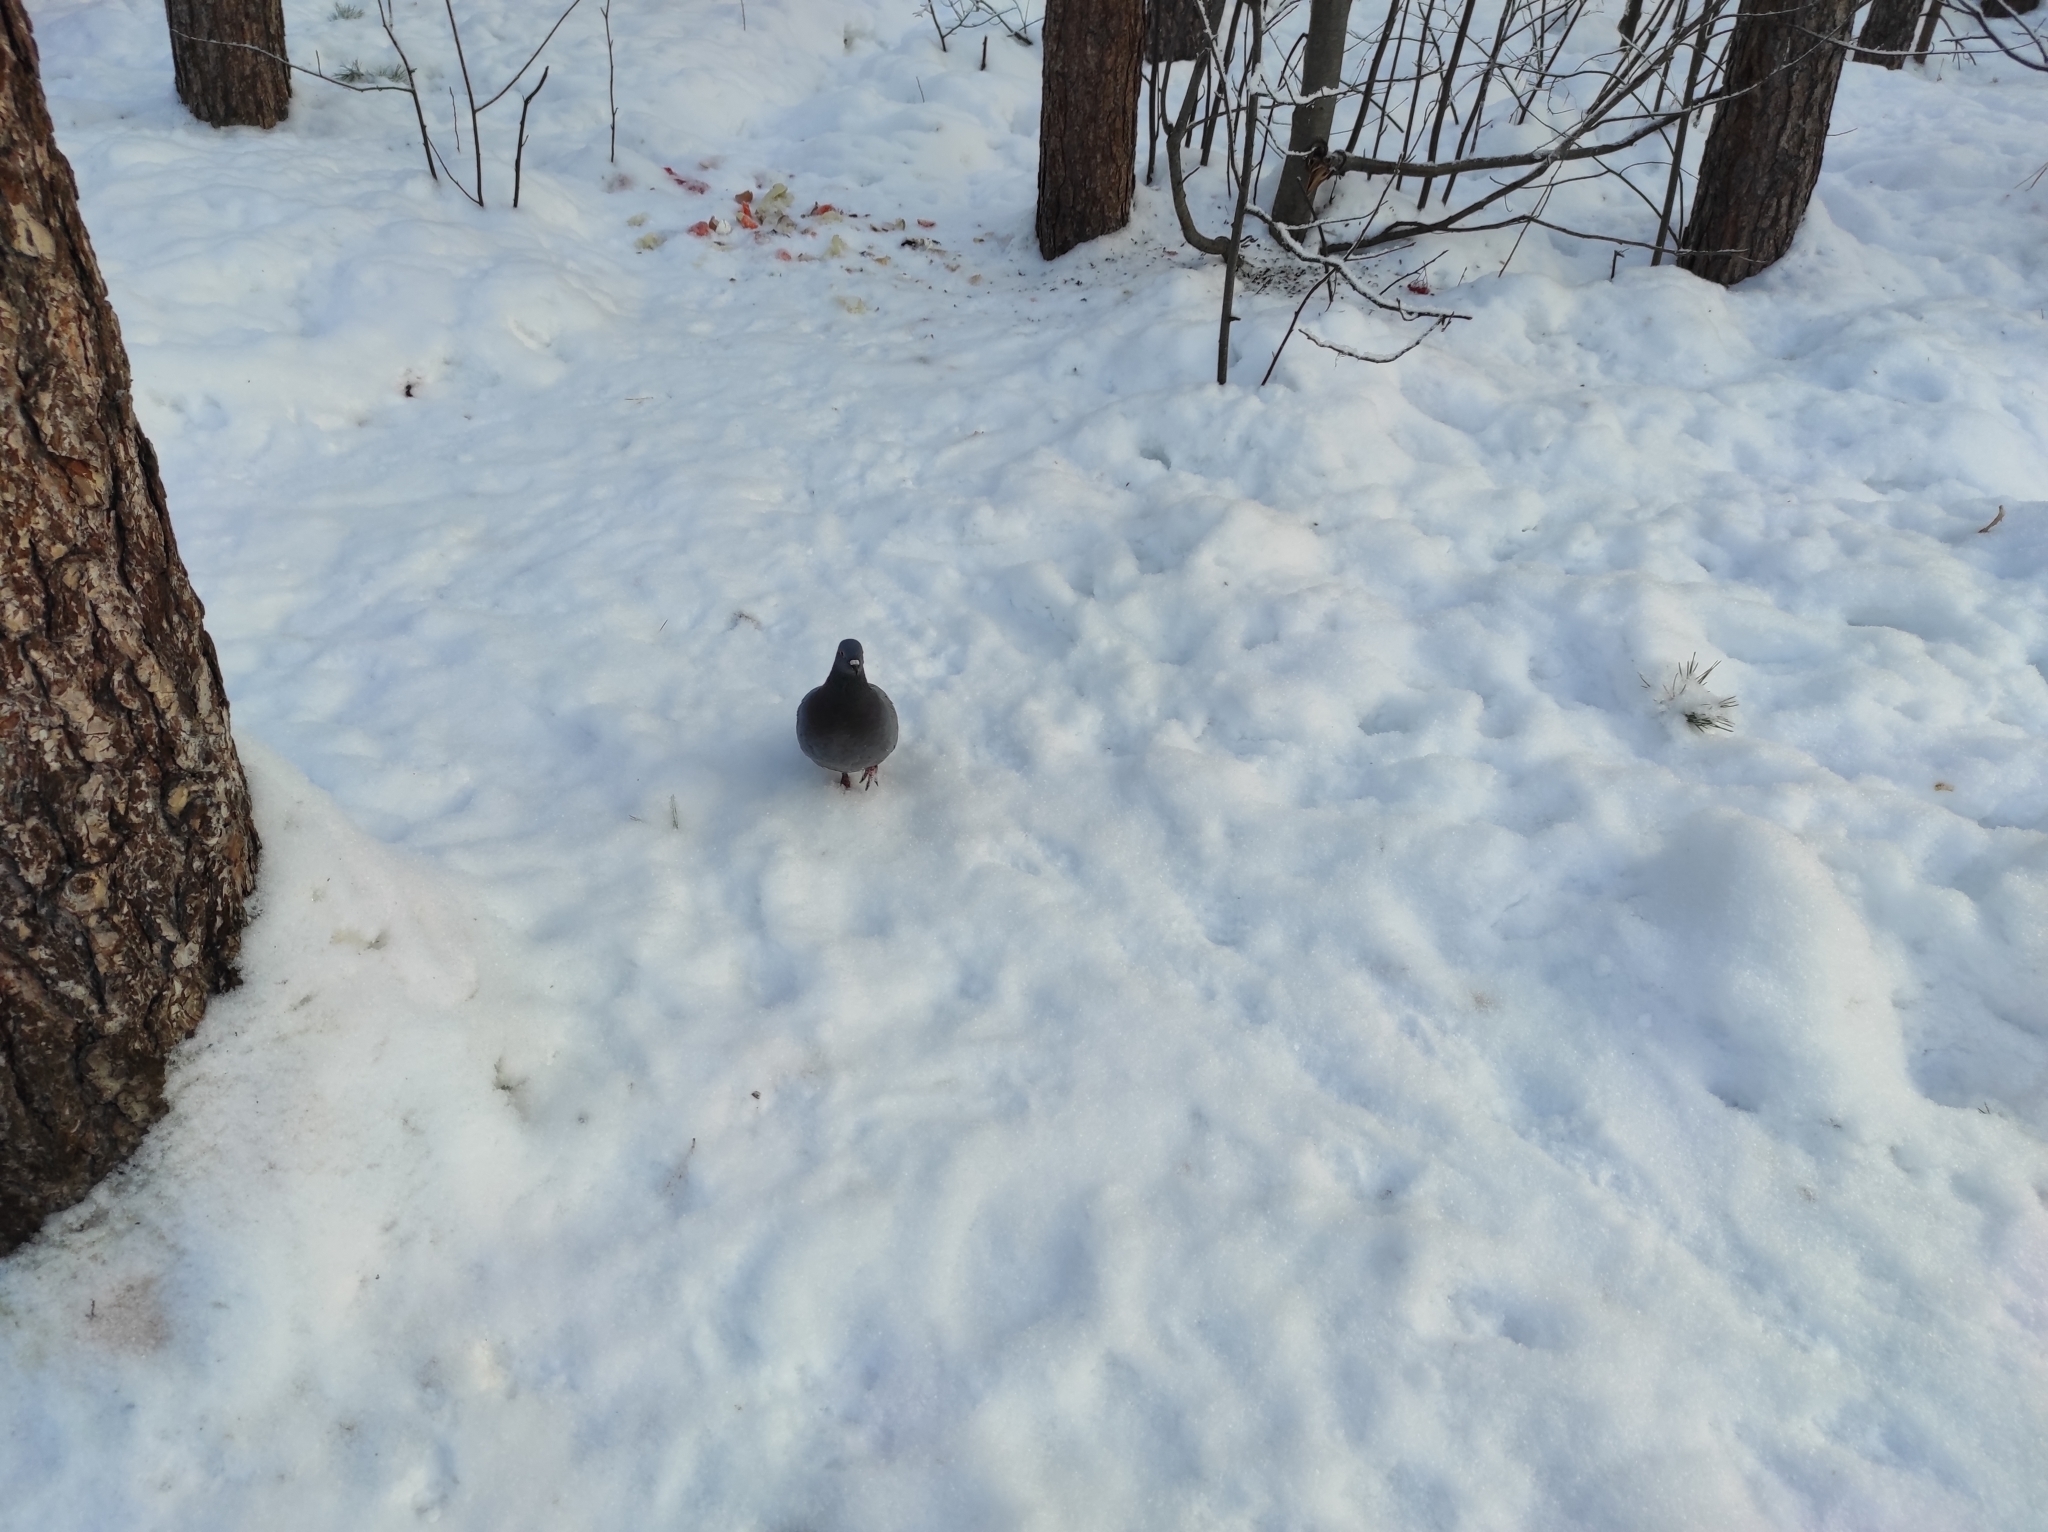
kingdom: Animalia
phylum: Chordata
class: Aves
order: Columbiformes
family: Columbidae
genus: Columba
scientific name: Columba livia
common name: Rock pigeon
